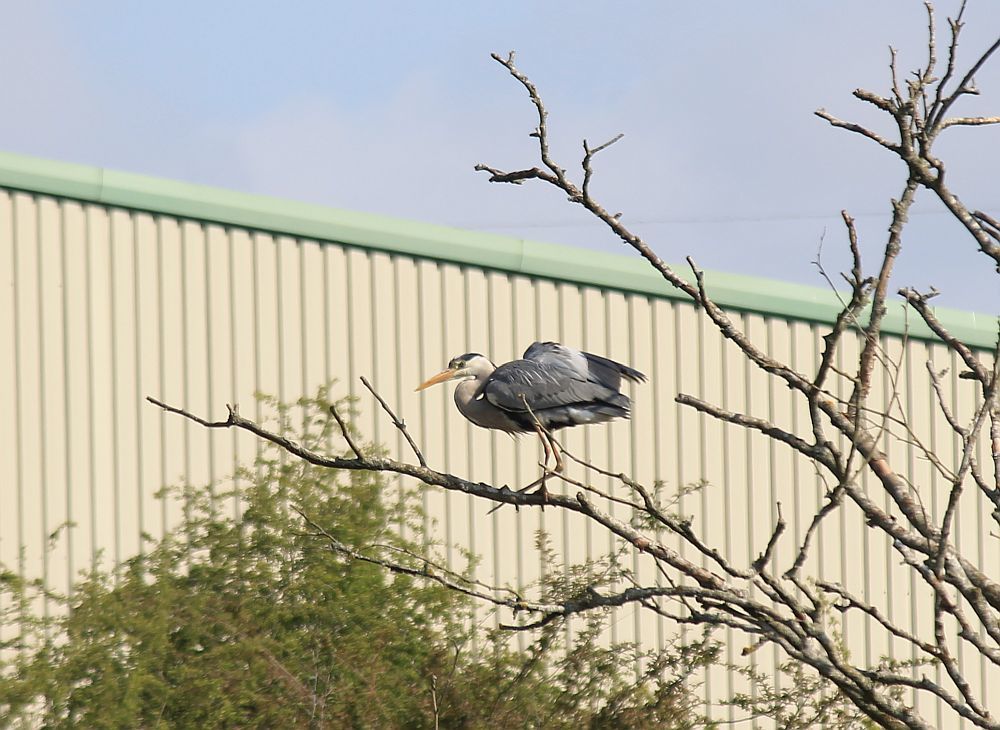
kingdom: Animalia
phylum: Chordata
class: Aves
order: Pelecaniformes
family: Ardeidae
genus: Ardea
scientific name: Ardea cinerea
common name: Grey heron
